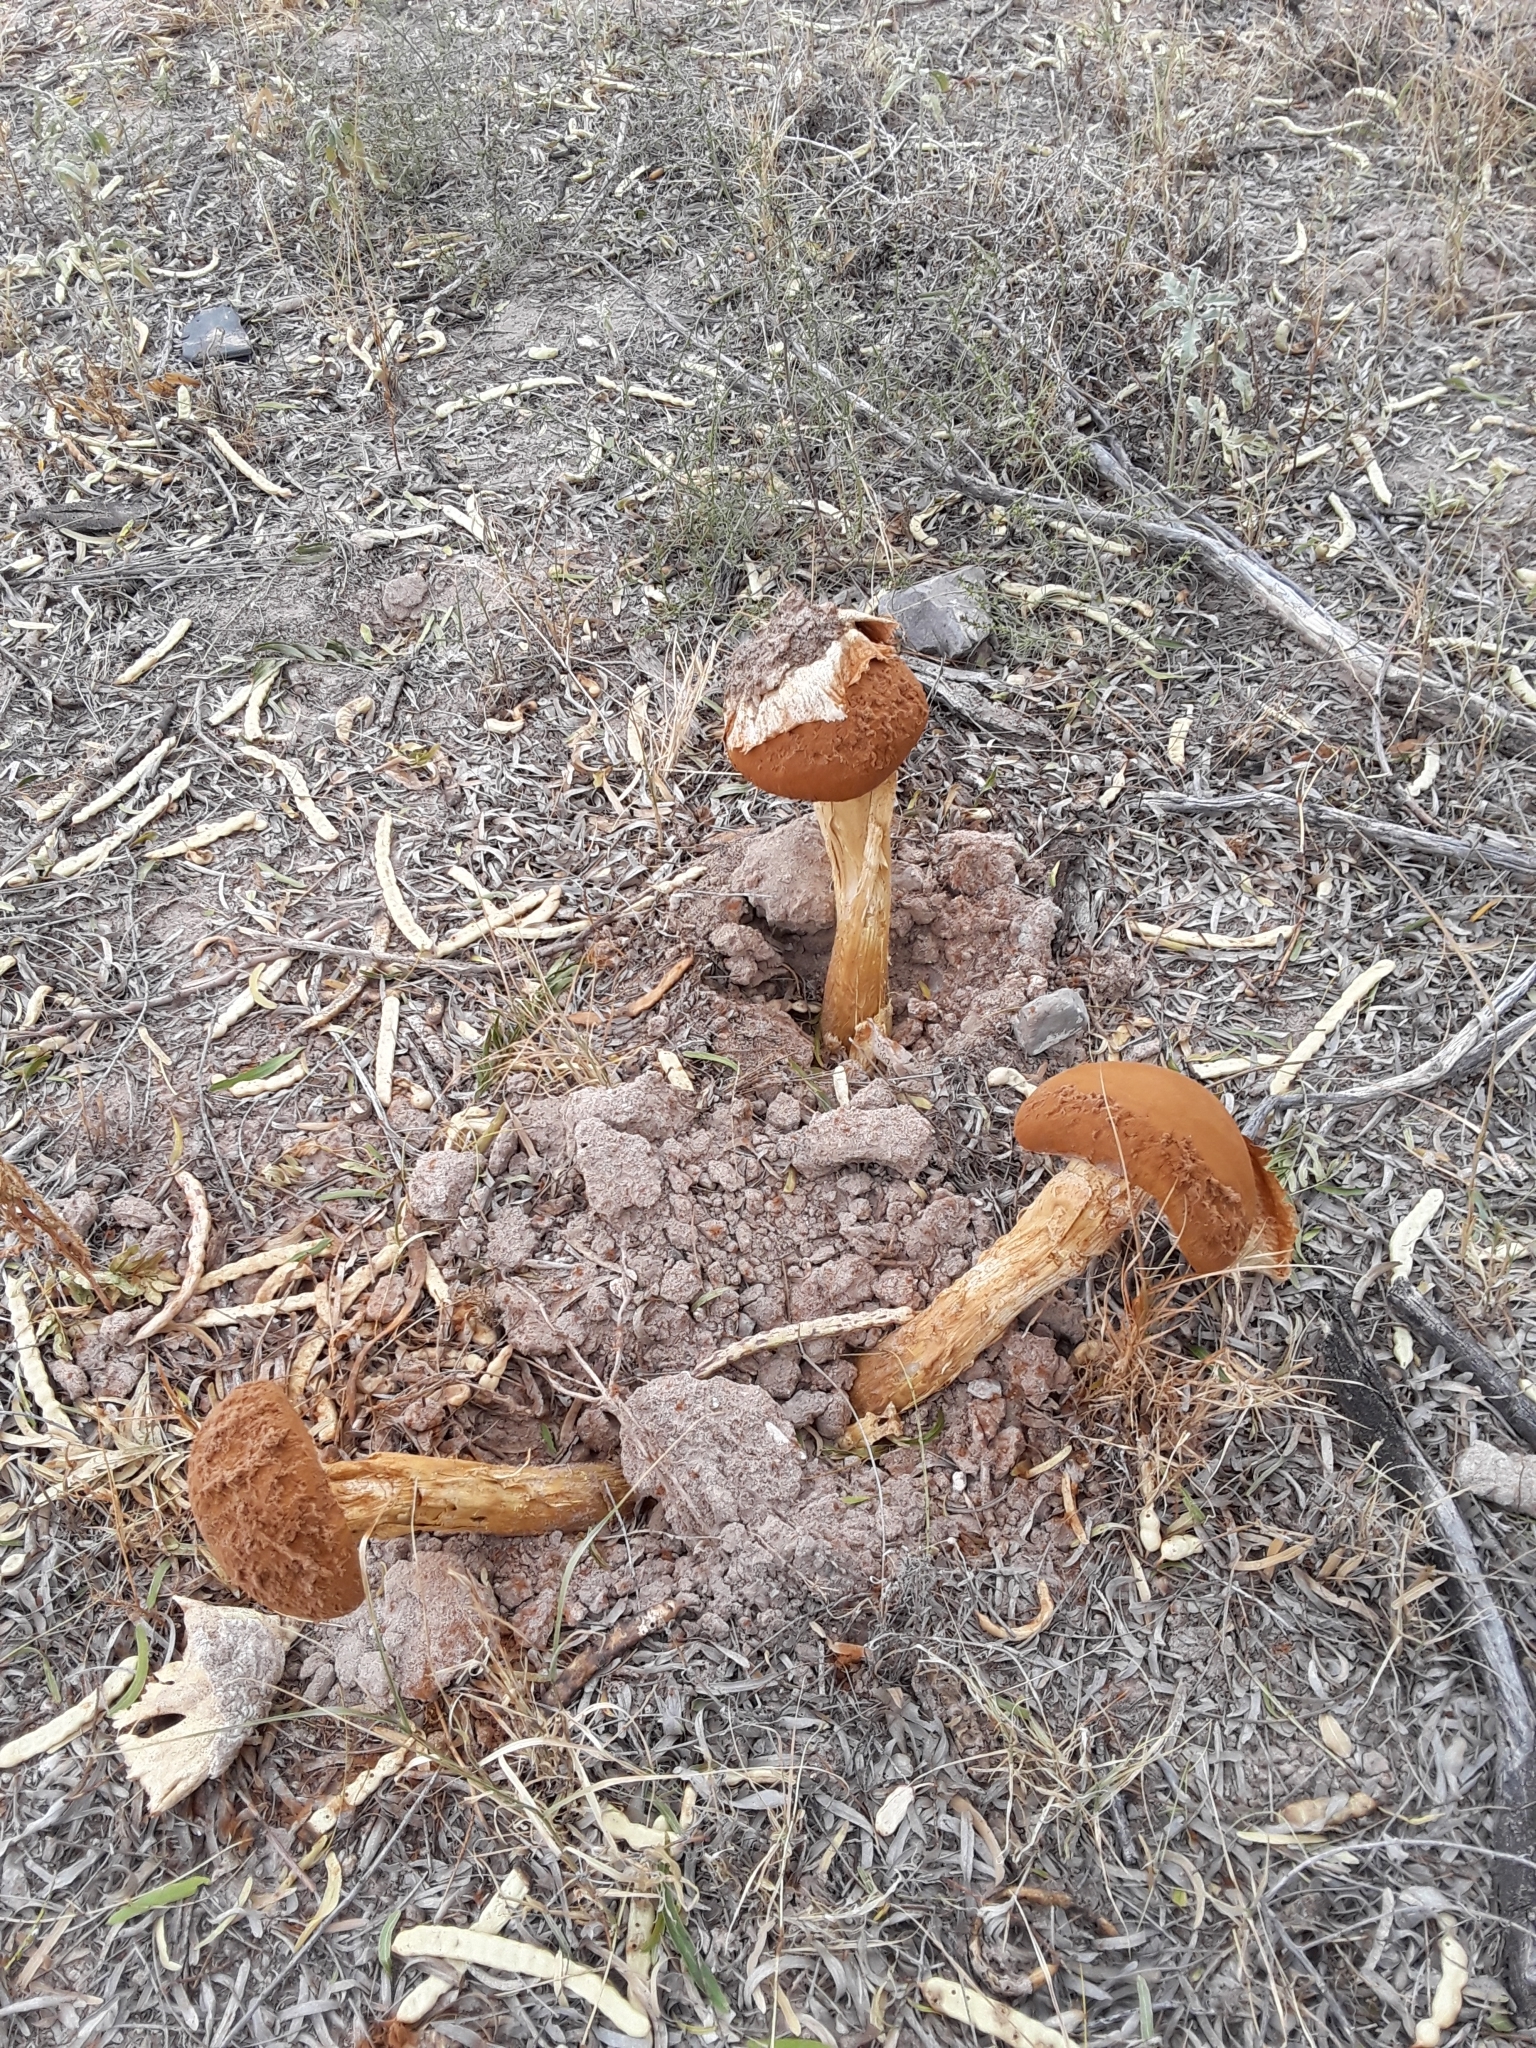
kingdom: Fungi
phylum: Basidiomycota
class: Agaricomycetes
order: Agaricales
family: Agaricaceae
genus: Battarrea
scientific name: Battarrea phalloides
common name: Sandy stiltball
